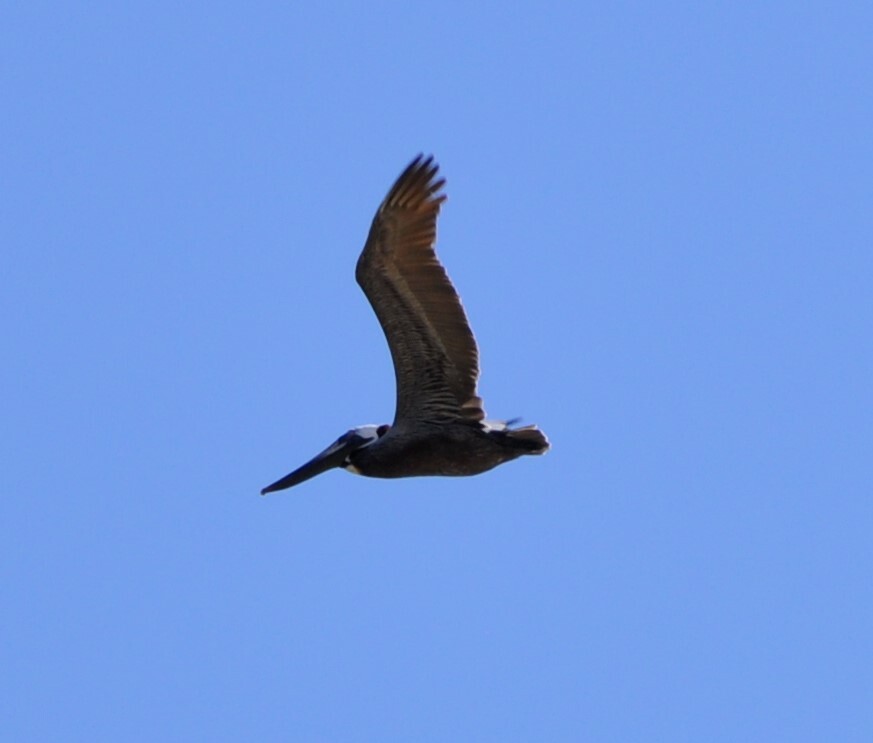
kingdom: Animalia
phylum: Chordata
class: Aves
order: Pelecaniformes
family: Pelecanidae
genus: Pelecanus
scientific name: Pelecanus occidentalis
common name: Brown pelican
